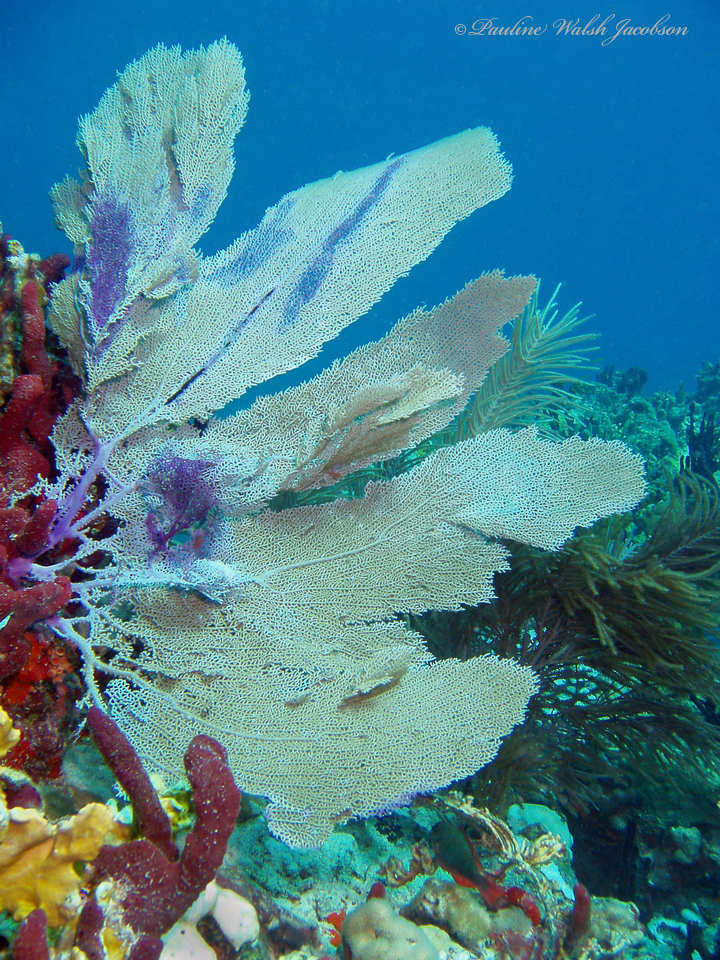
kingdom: Animalia
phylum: Cnidaria
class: Anthozoa
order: Malacalcyonacea
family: Gorgoniidae
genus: Gorgonia
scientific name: Gorgonia ventalina
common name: Common sea fan
